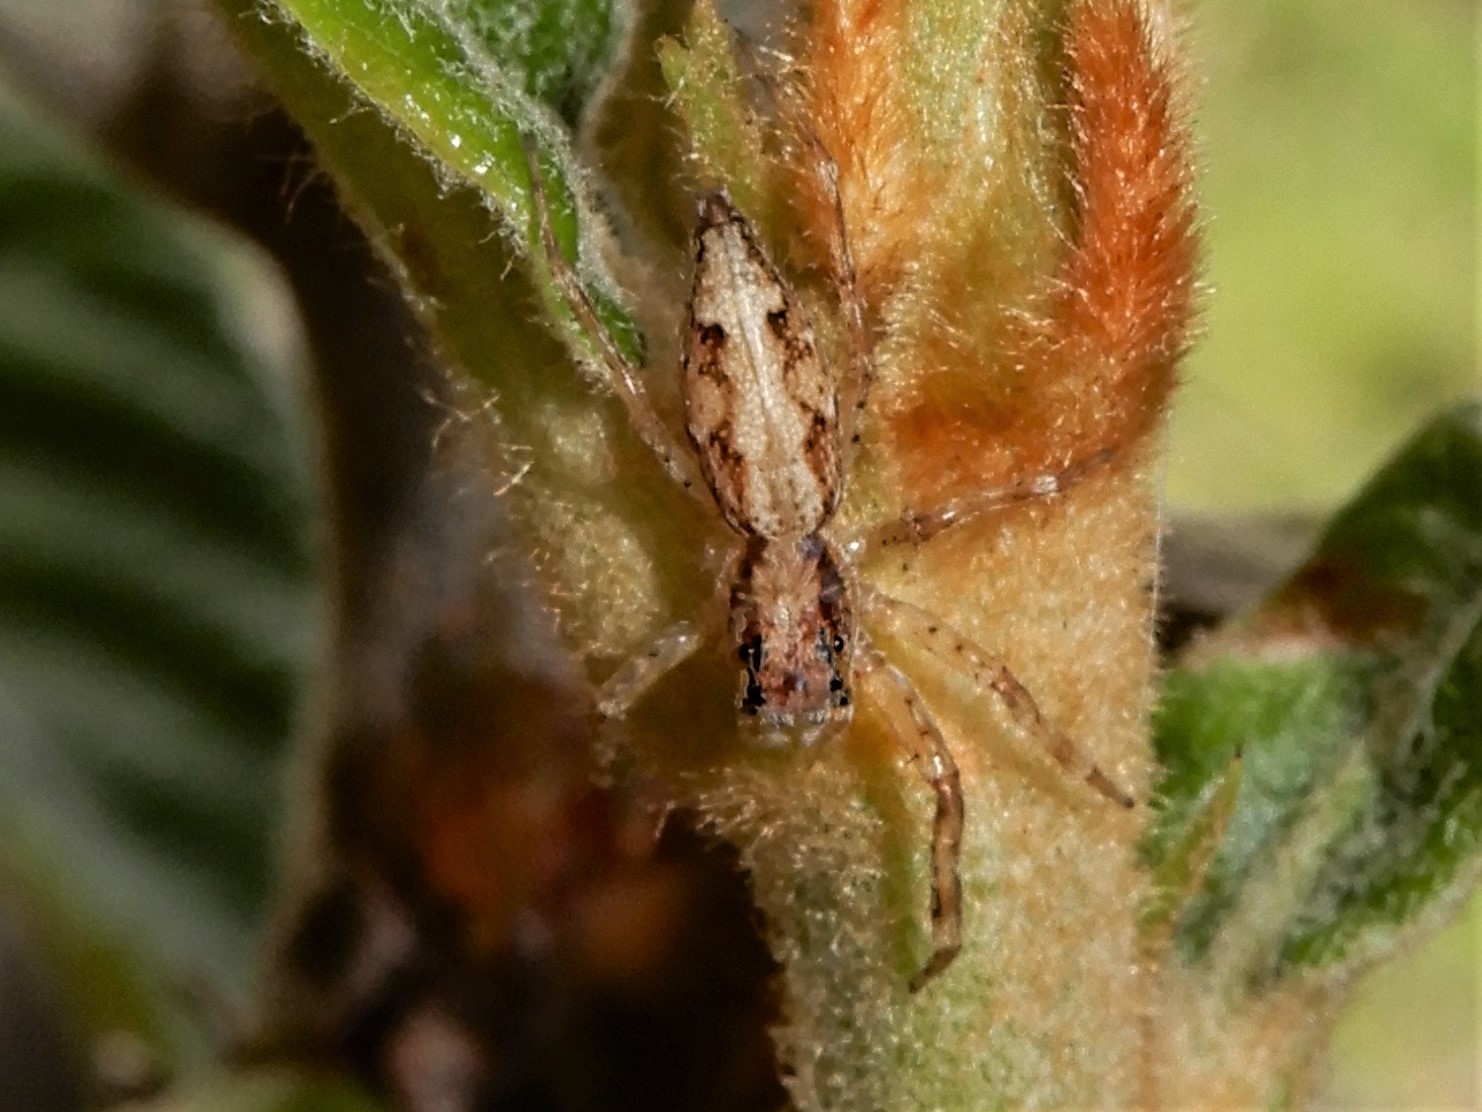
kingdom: Animalia
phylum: Arthropoda
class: Arachnida
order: Araneae
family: Salticidae
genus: Helpis
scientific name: Helpis minitabunda
